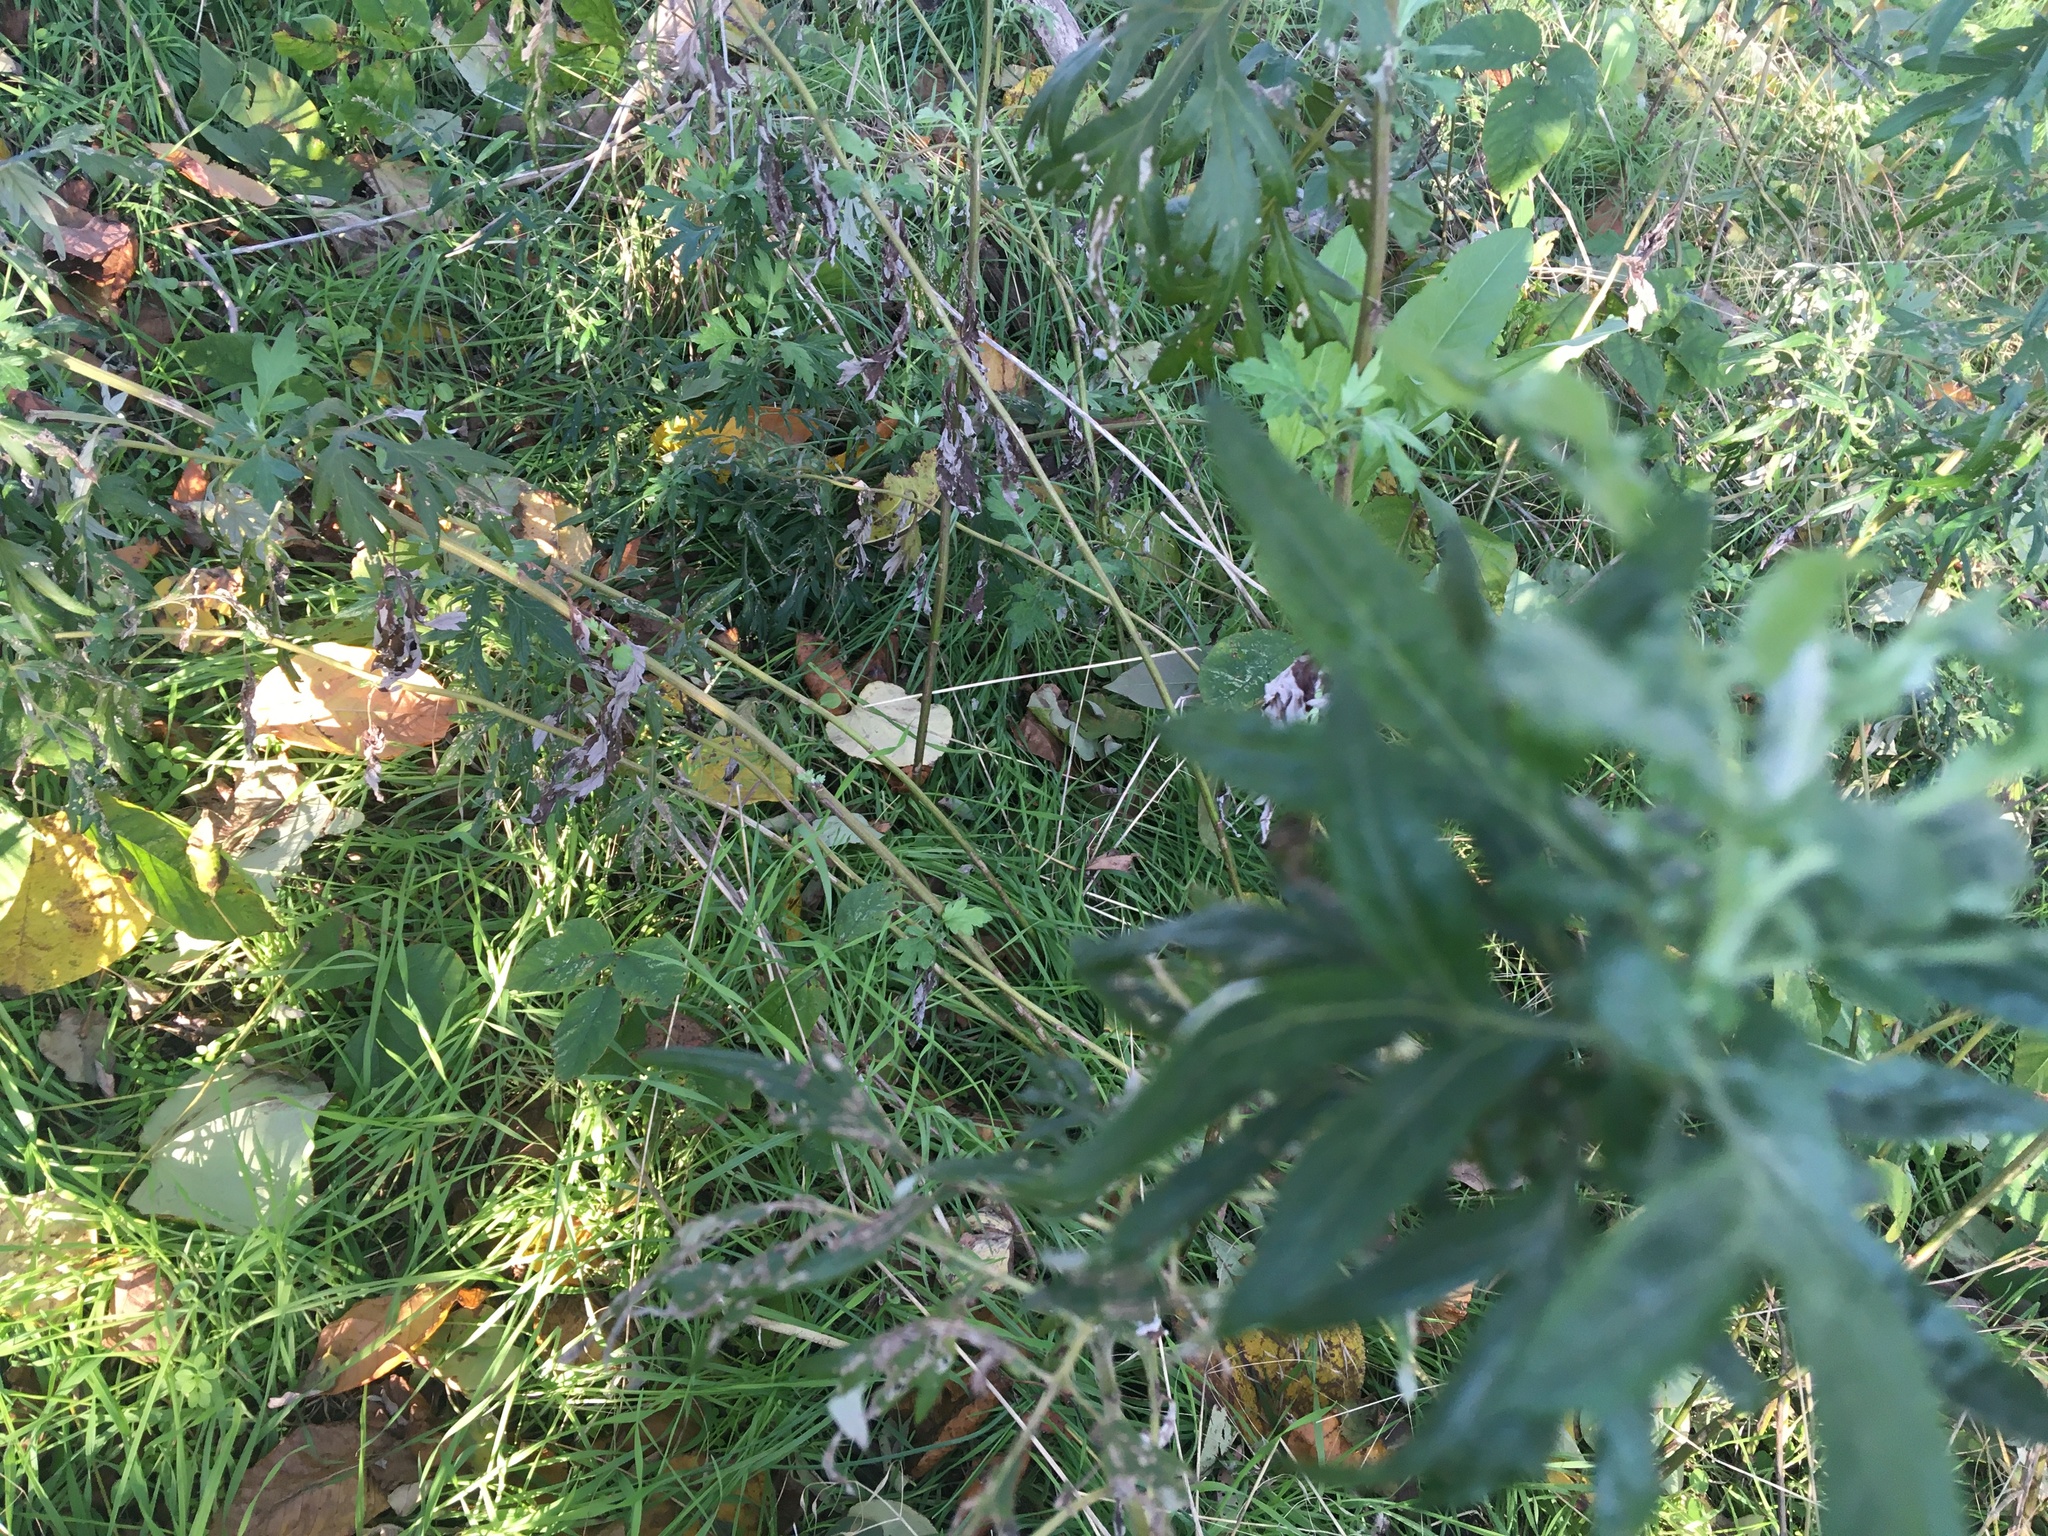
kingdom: Plantae
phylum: Tracheophyta
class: Magnoliopsida
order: Asterales
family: Asteraceae
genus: Artemisia
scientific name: Artemisia vulgaris
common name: Mugwort
